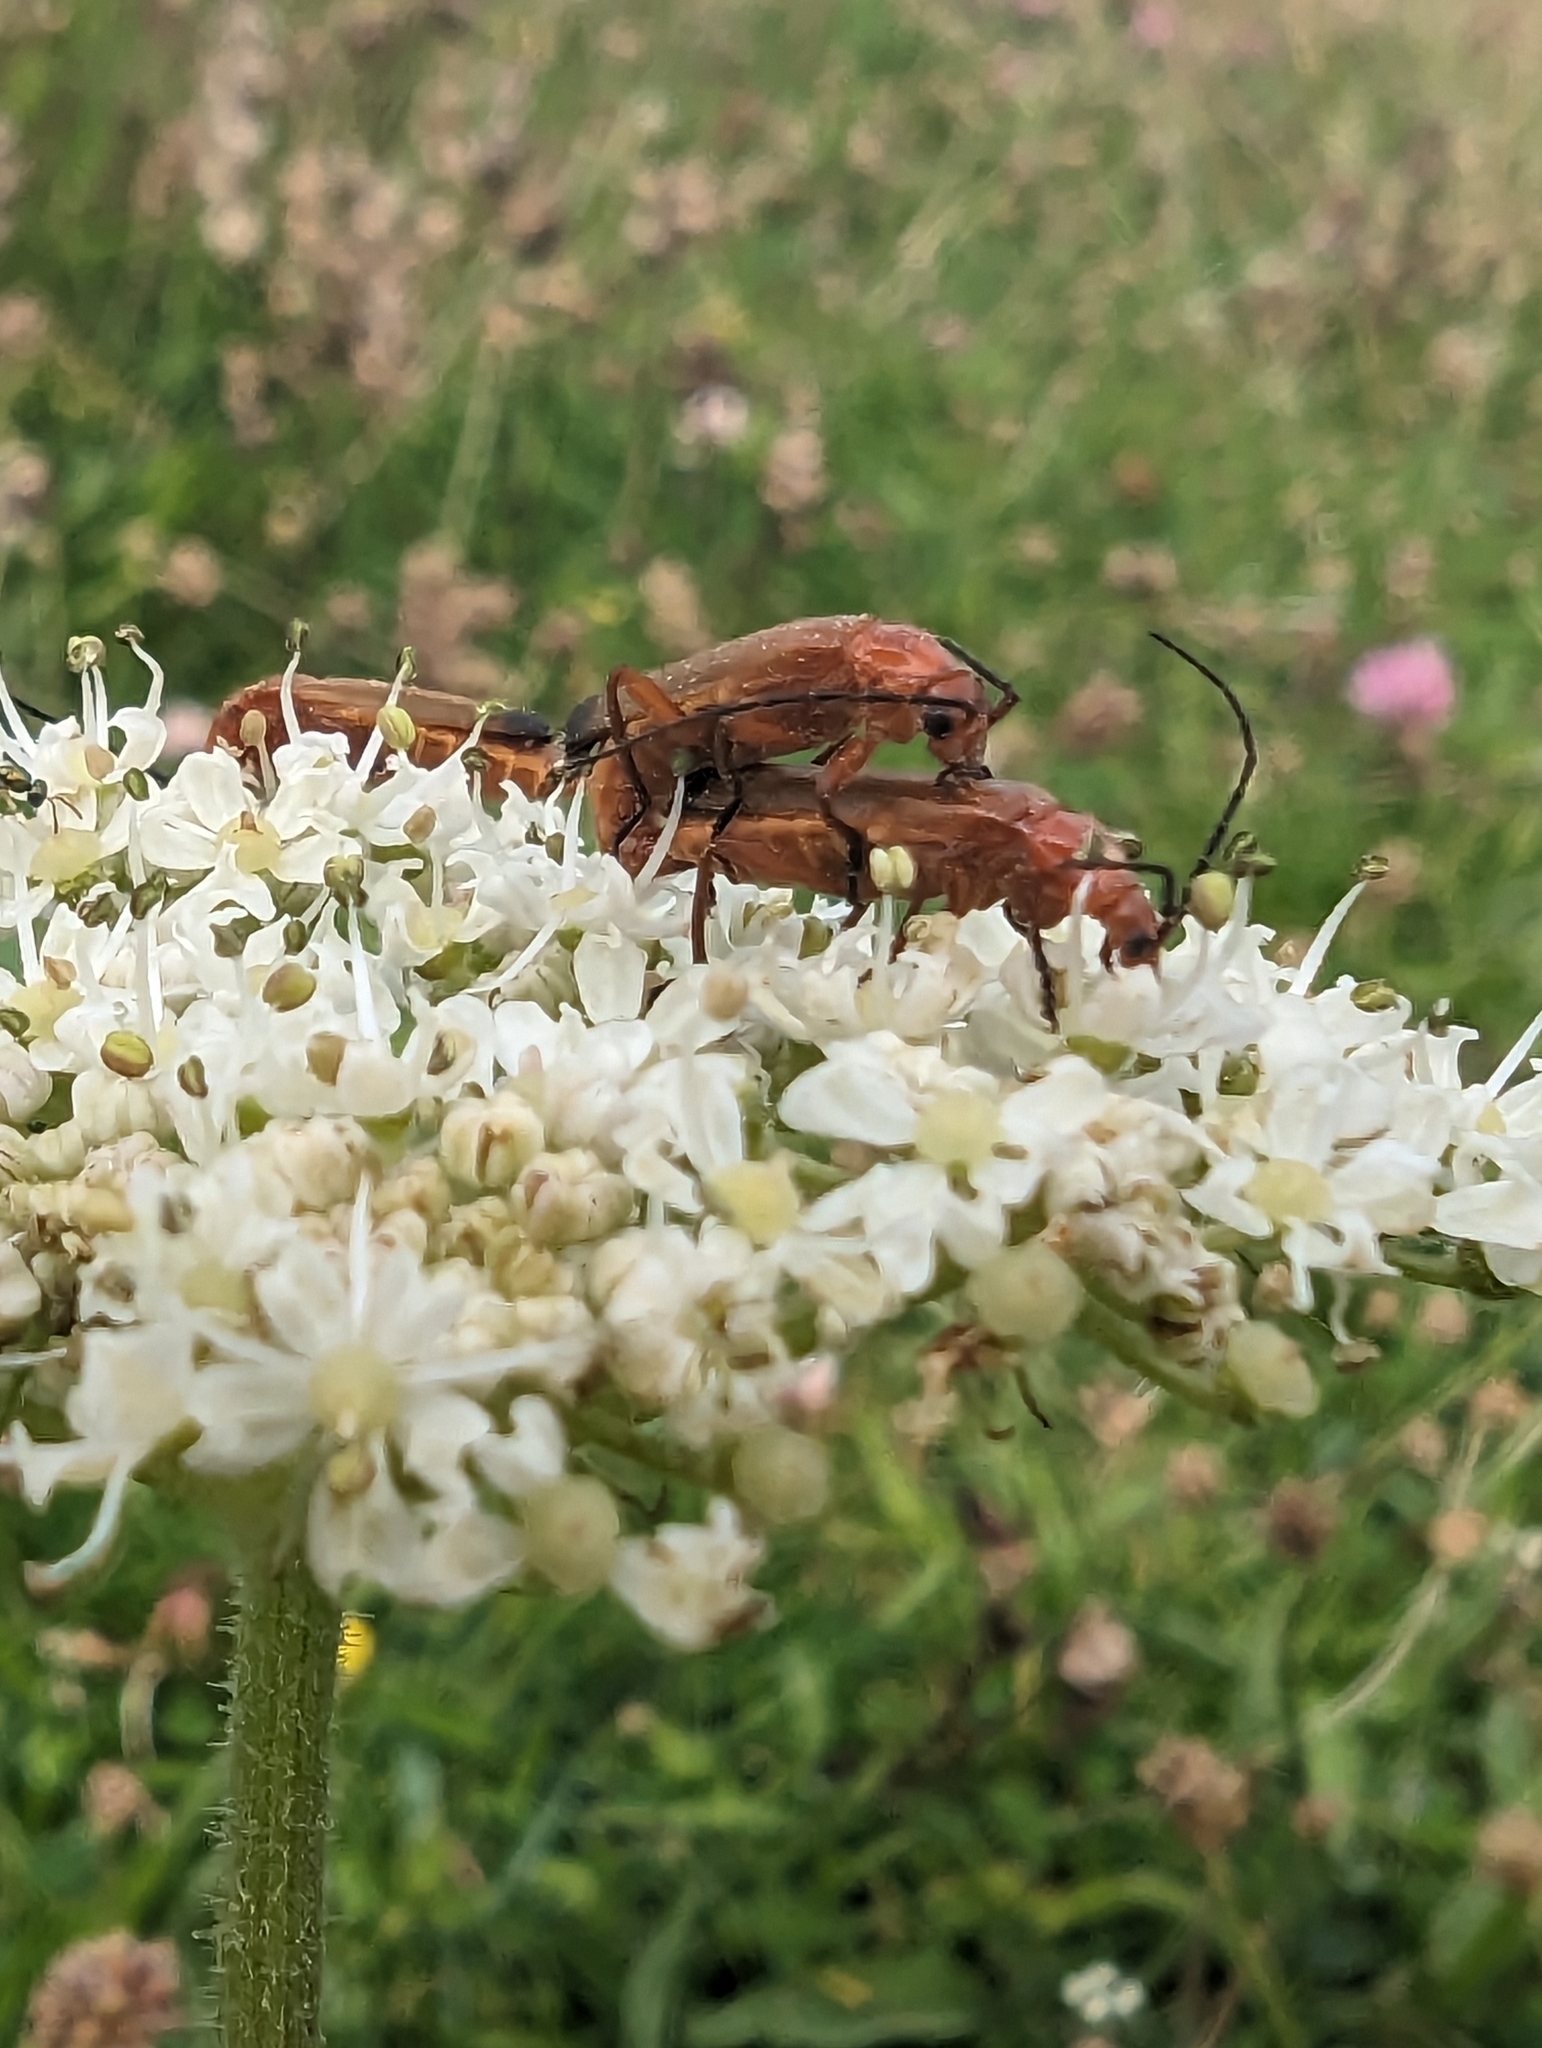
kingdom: Animalia
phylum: Arthropoda
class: Insecta
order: Coleoptera
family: Cantharidae
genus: Rhagonycha
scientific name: Rhagonycha fulva
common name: Common red soldier beetle
